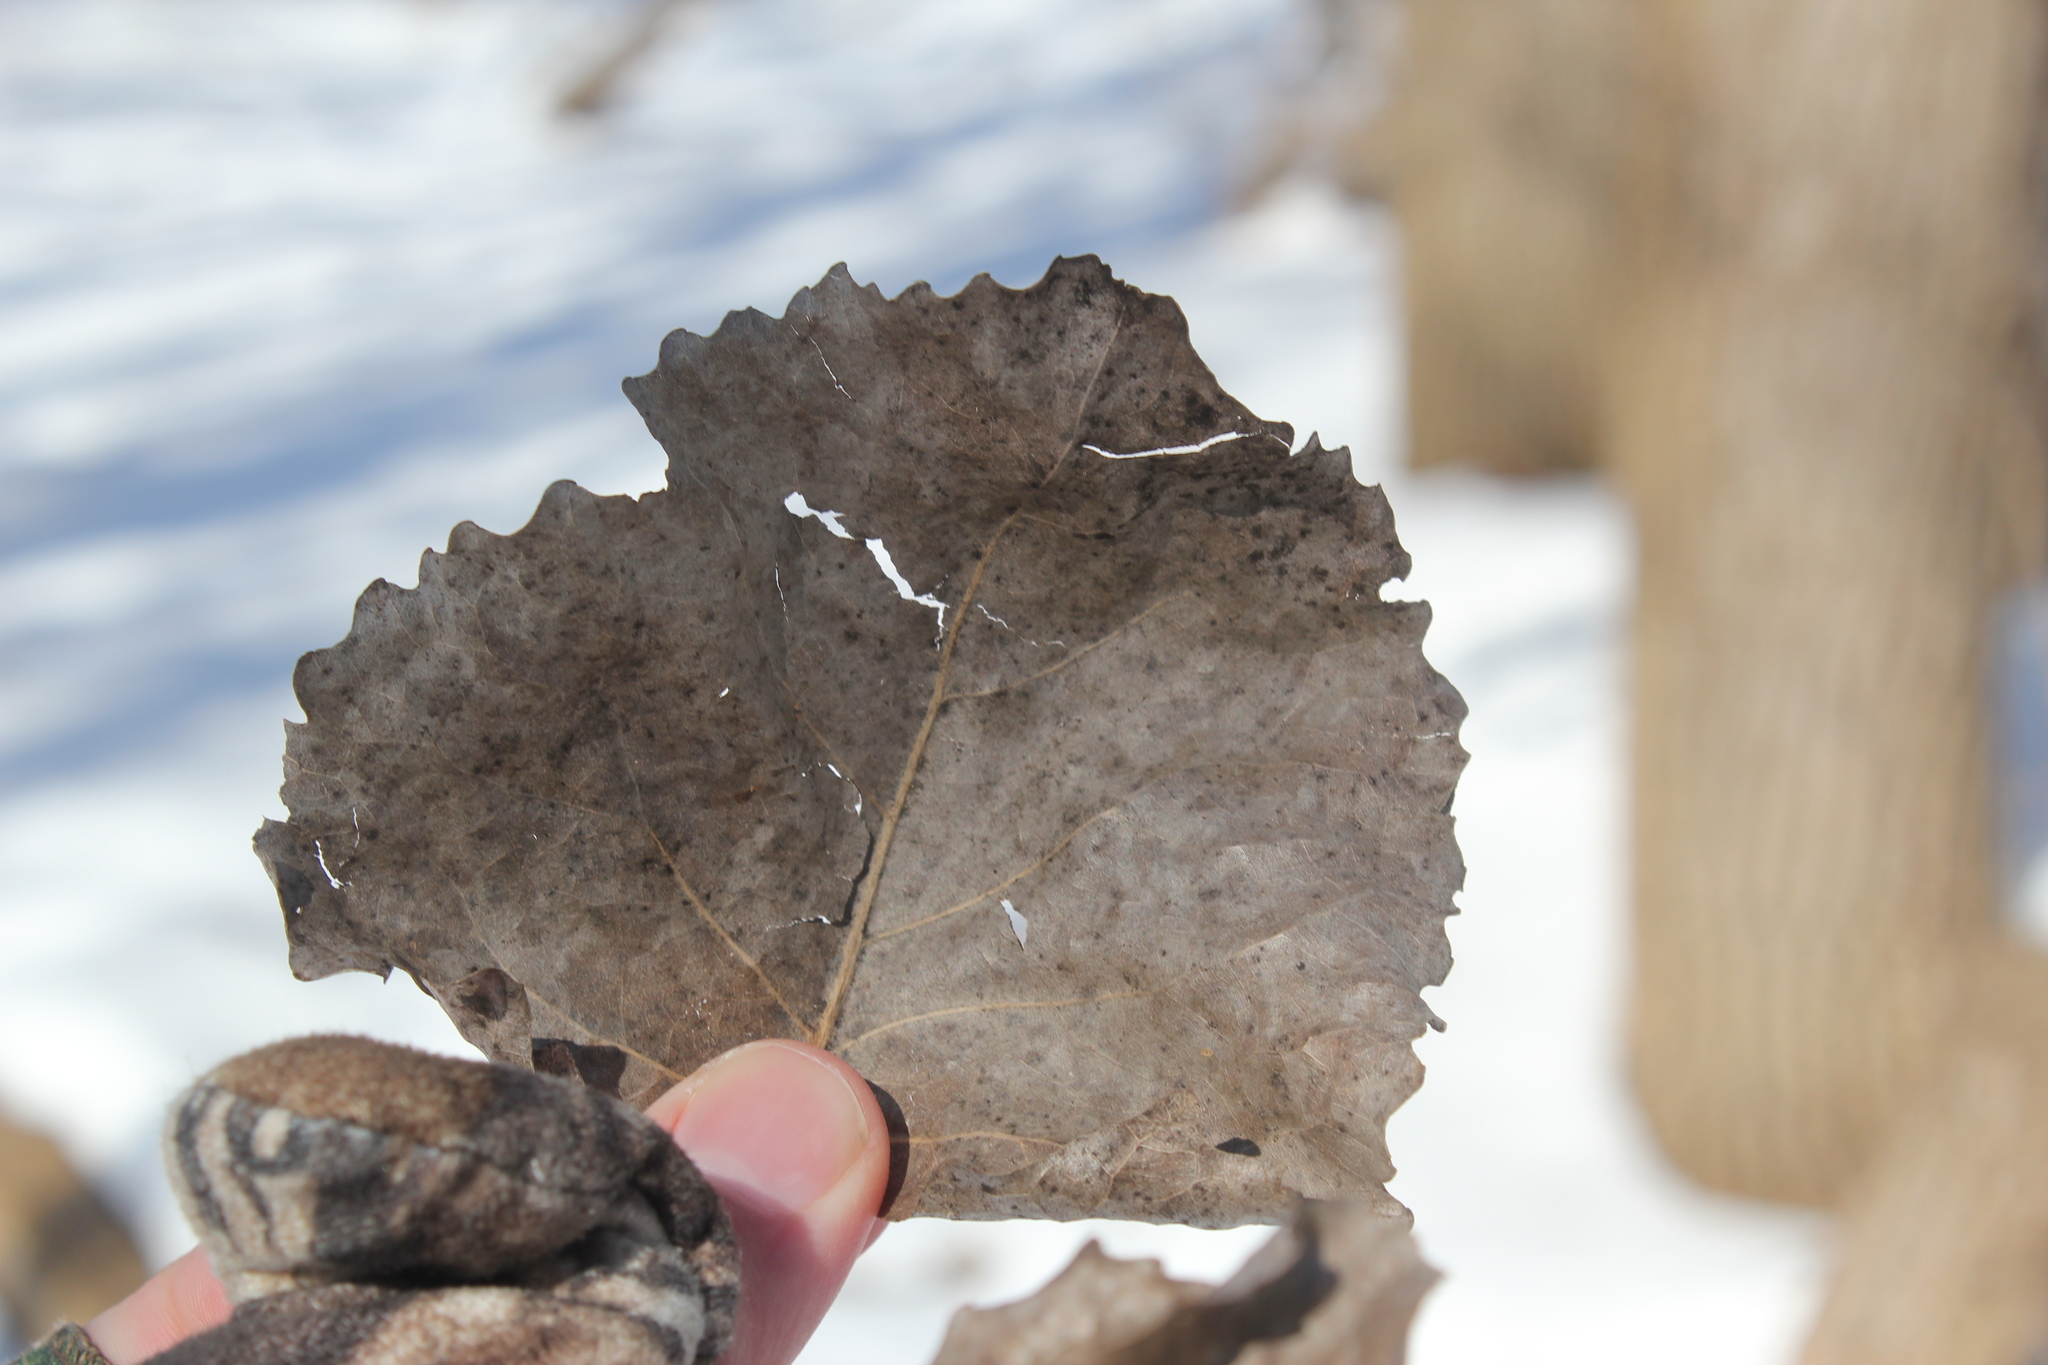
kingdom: Plantae
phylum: Tracheophyta
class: Magnoliopsida
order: Malpighiales
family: Salicaceae
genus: Populus
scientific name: Populus deltoides
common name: Eastern cottonwood
